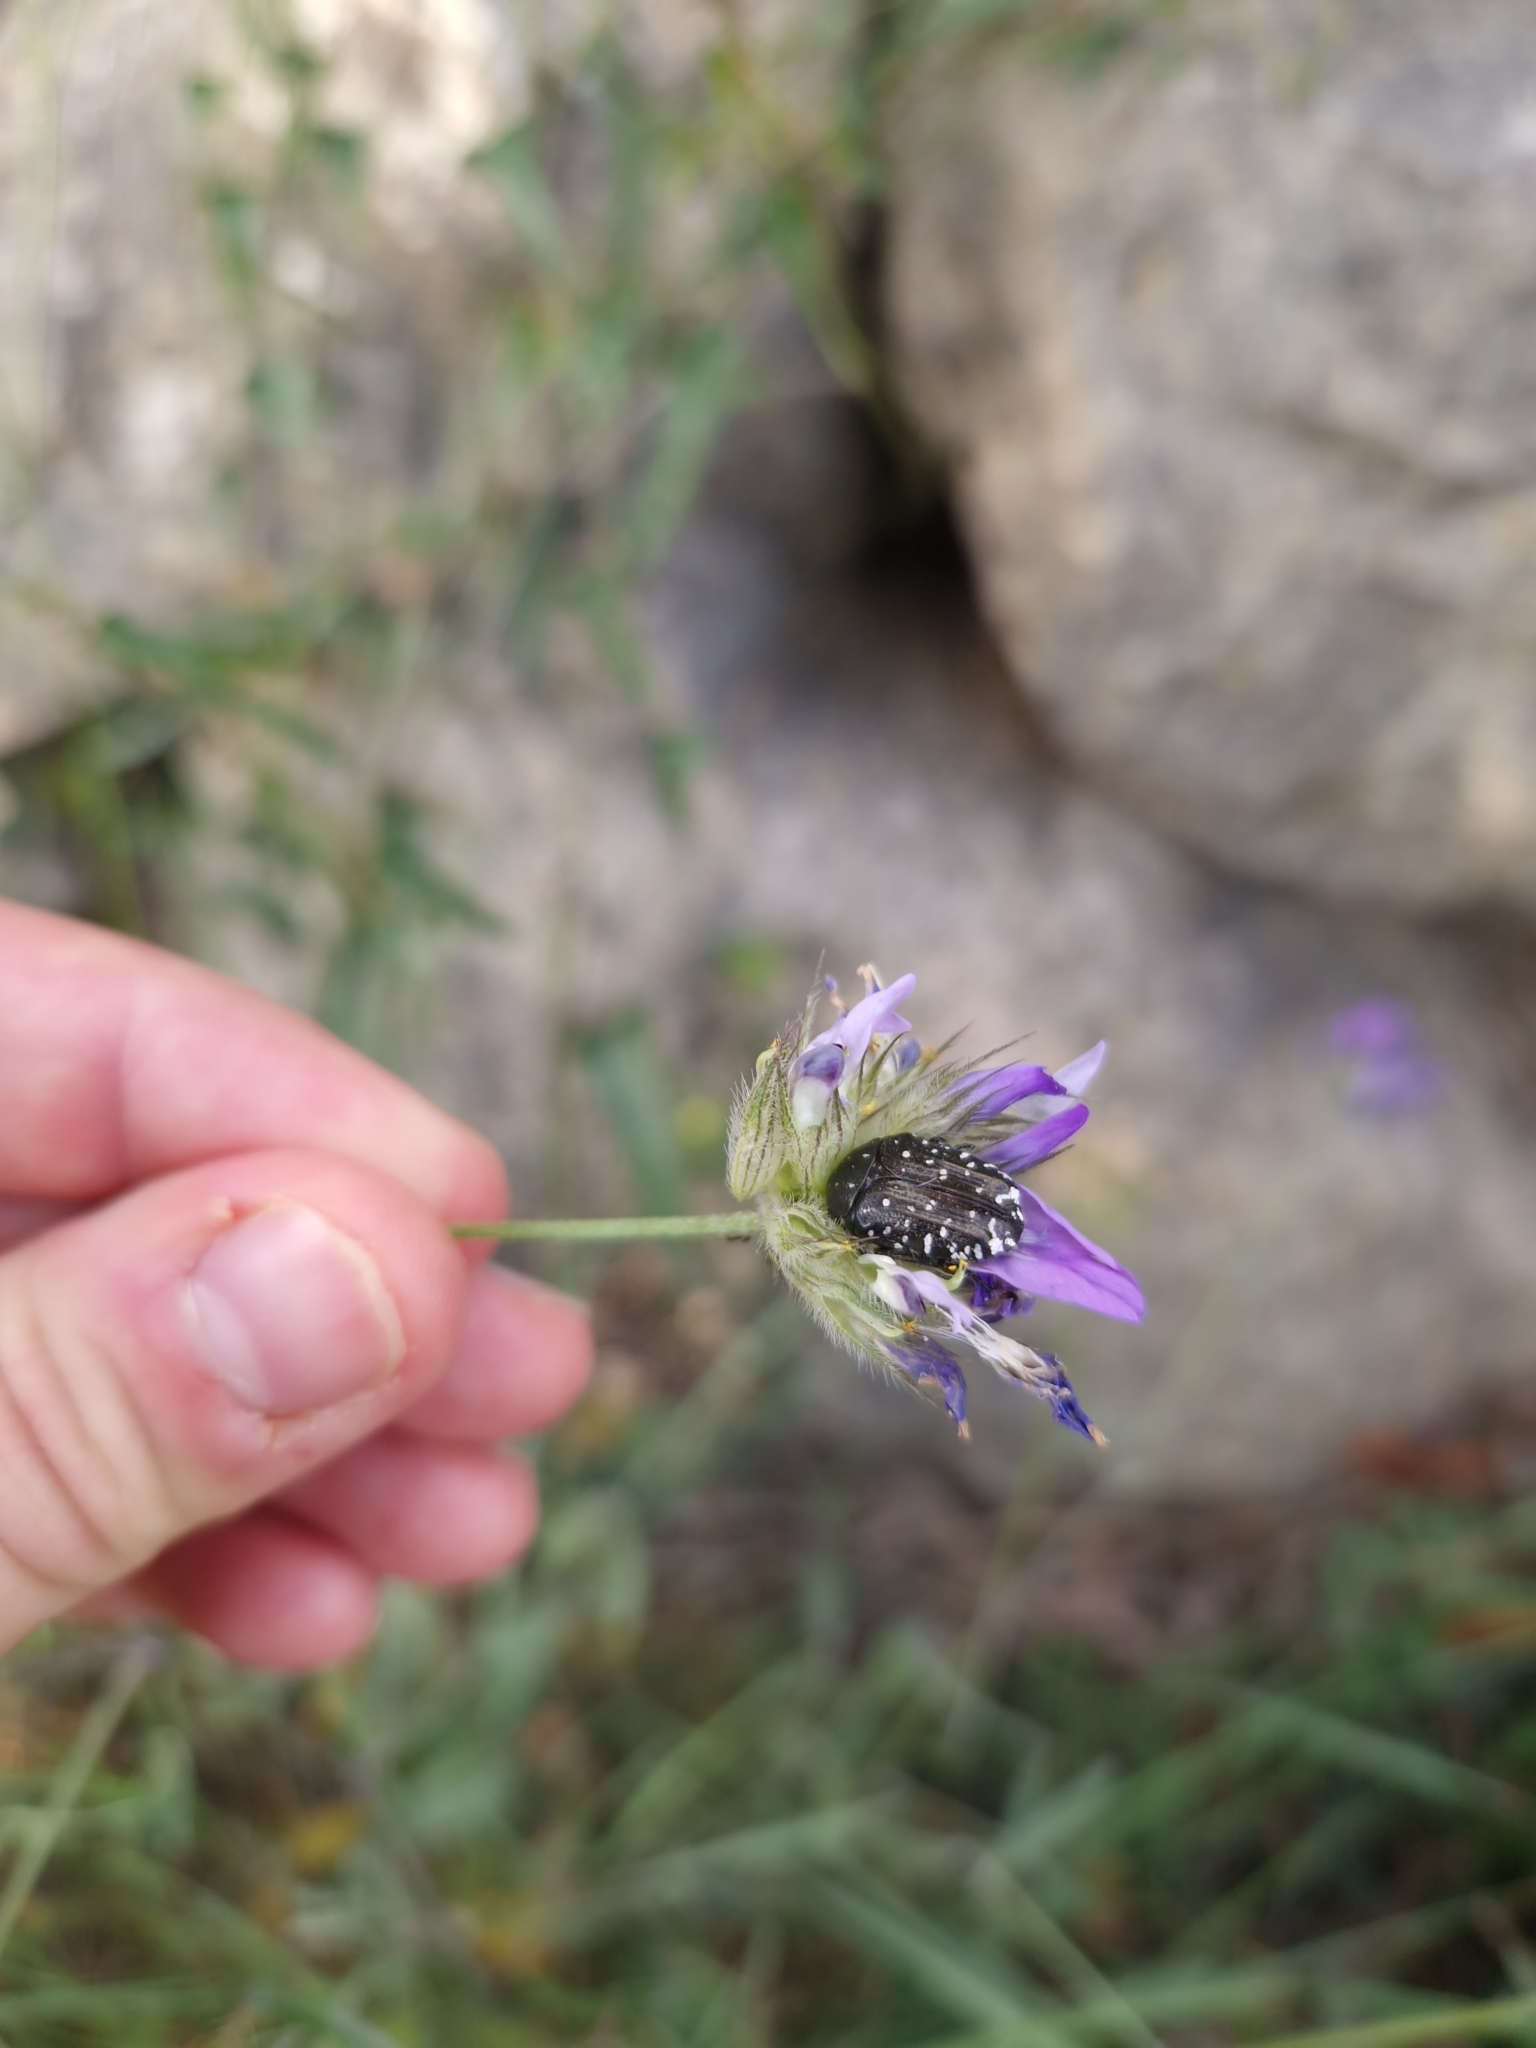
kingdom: Animalia
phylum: Arthropoda
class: Insecta
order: Coleoptera
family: Scarabaeidae
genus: Oxythyrea
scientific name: Oxythyrea funesta
